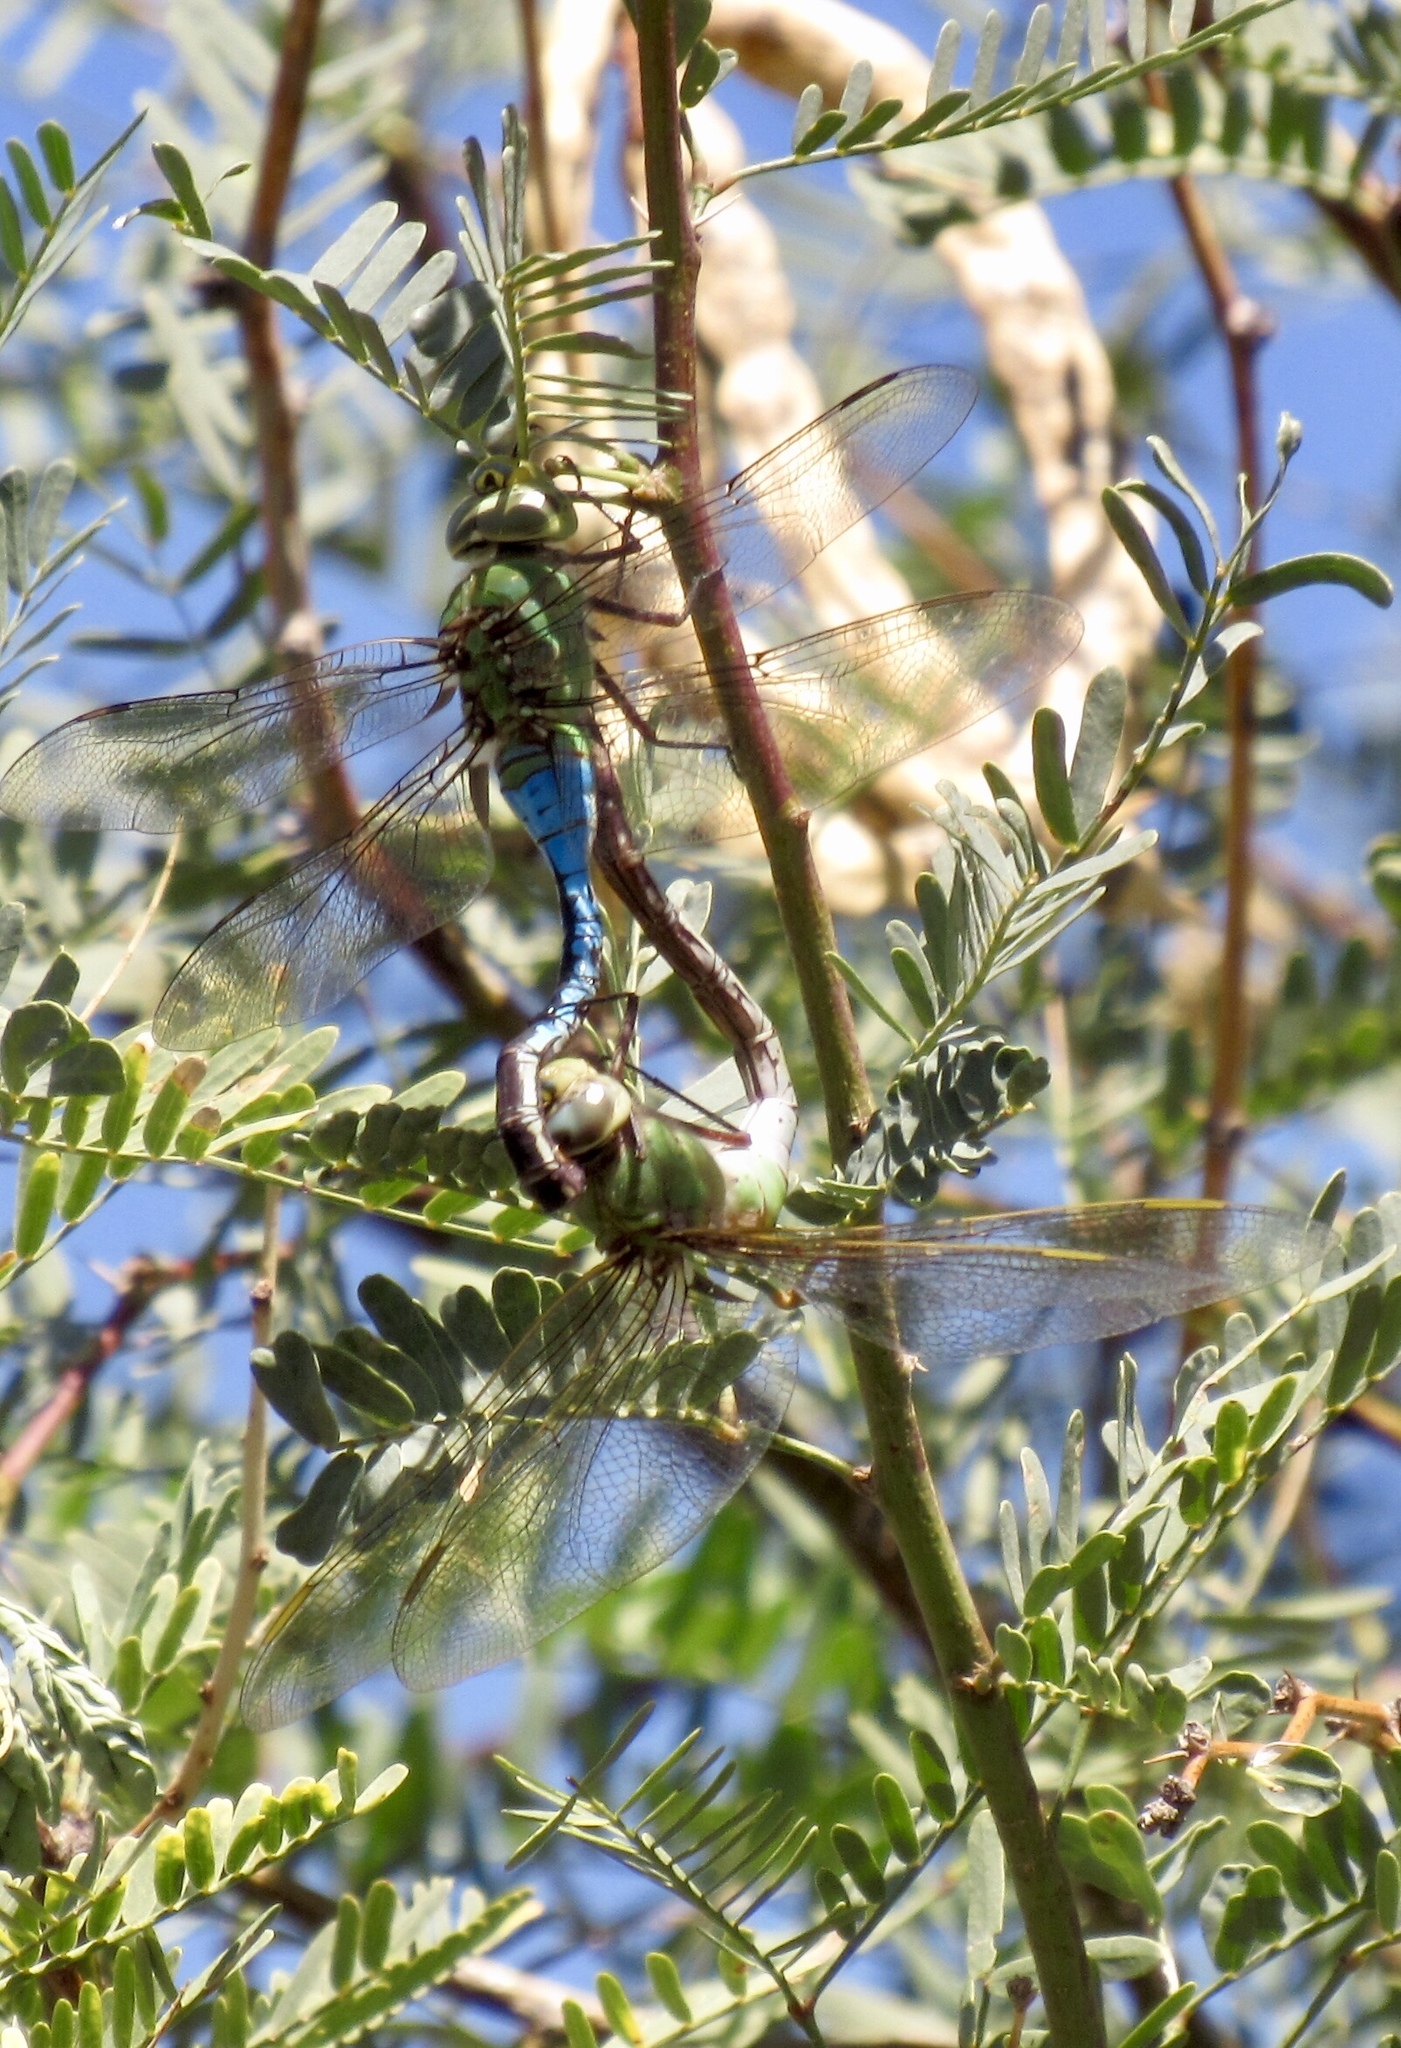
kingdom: Animalia
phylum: Arthropoda
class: Insecta
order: Odonata
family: Aeshnidae
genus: Anax
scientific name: Anax junius
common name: Common green darner
